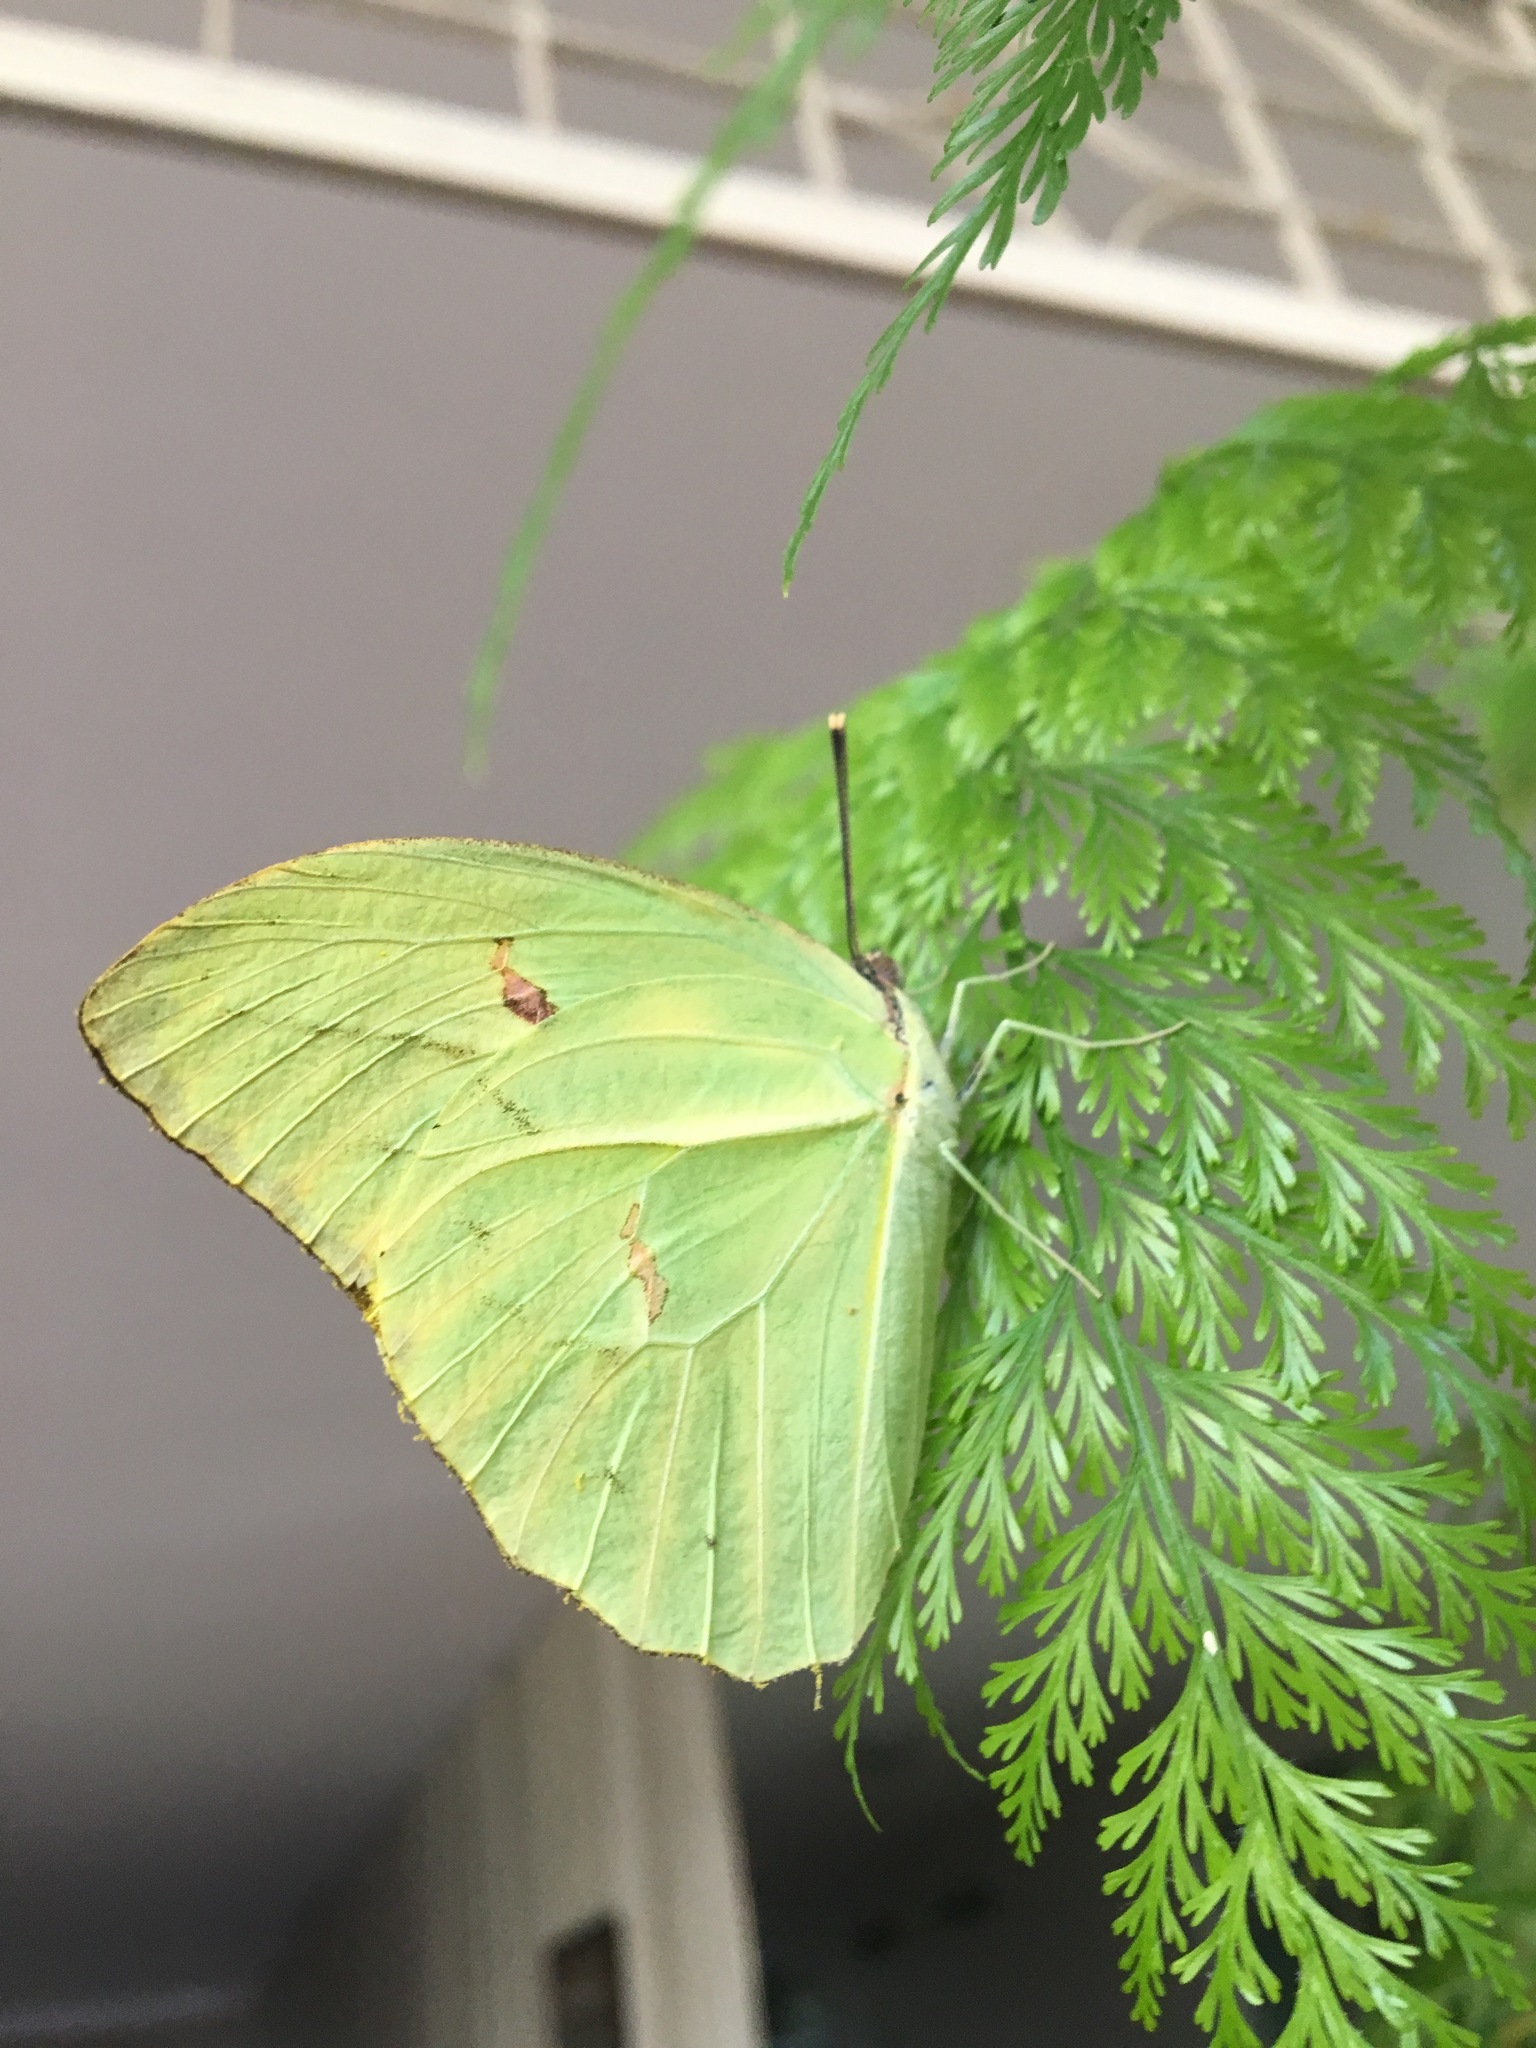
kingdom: Animalia
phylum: Arthropoda
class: Insecta
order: Lepidoptera
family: Pieridae
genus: Anteos
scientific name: Anteos menippe
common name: Orangetip angled-sulphur
